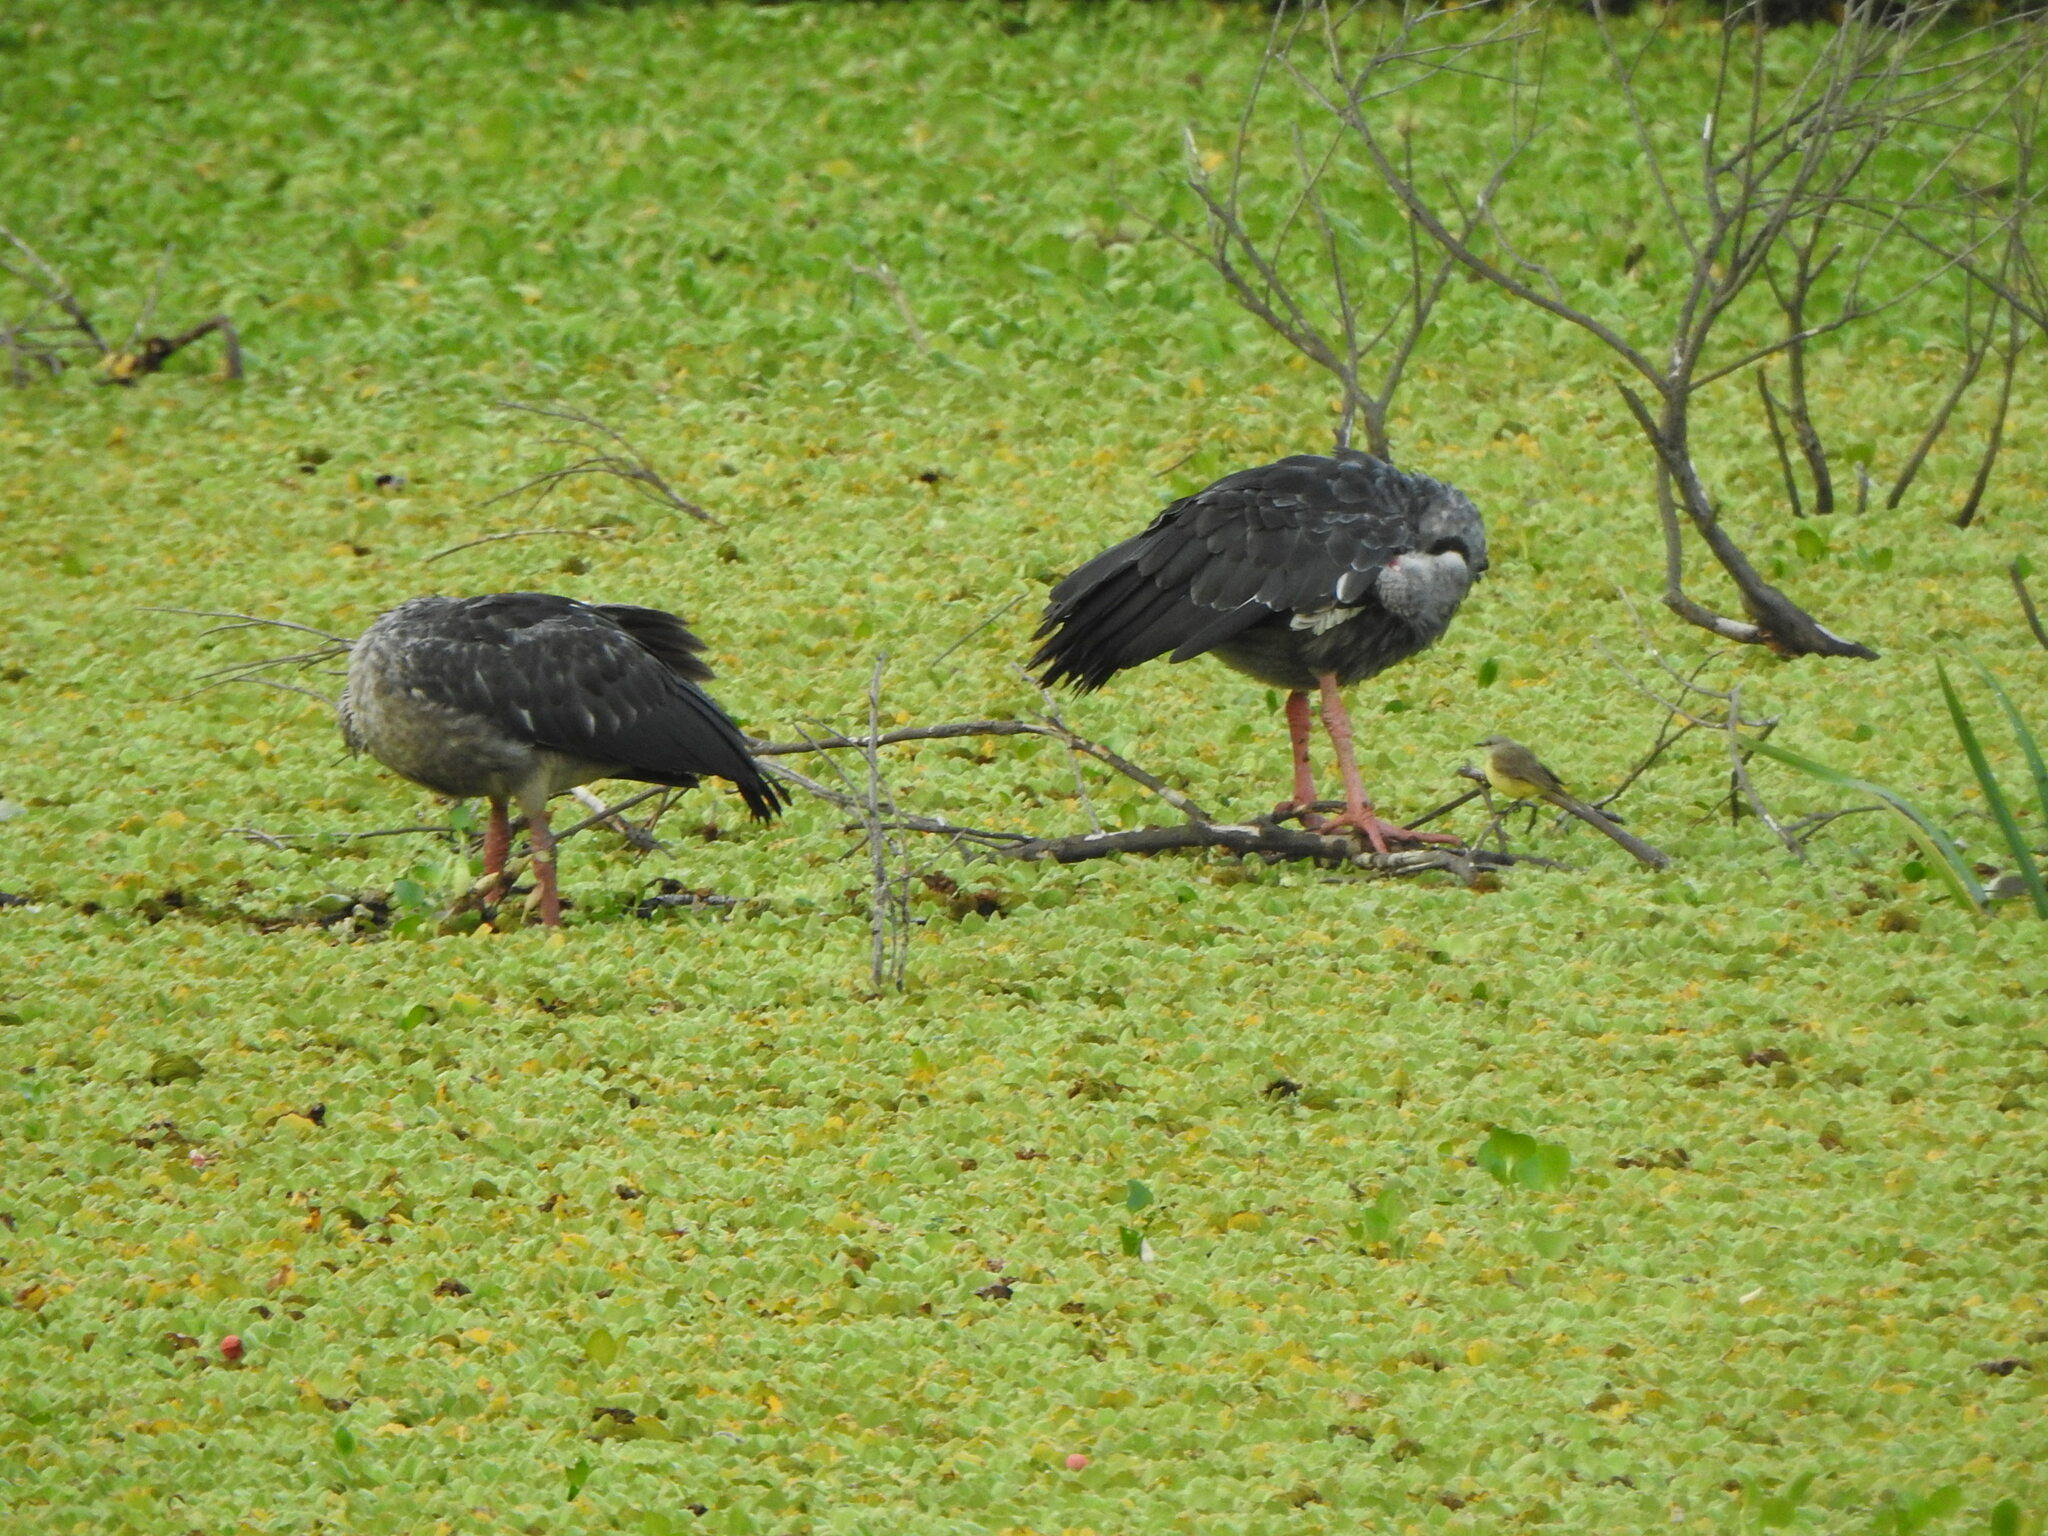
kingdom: Animalia
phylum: Chordata
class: Aves
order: Anseriformes
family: Anhimidae
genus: Chauna
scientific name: Chauna torquata
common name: Southern screamer
